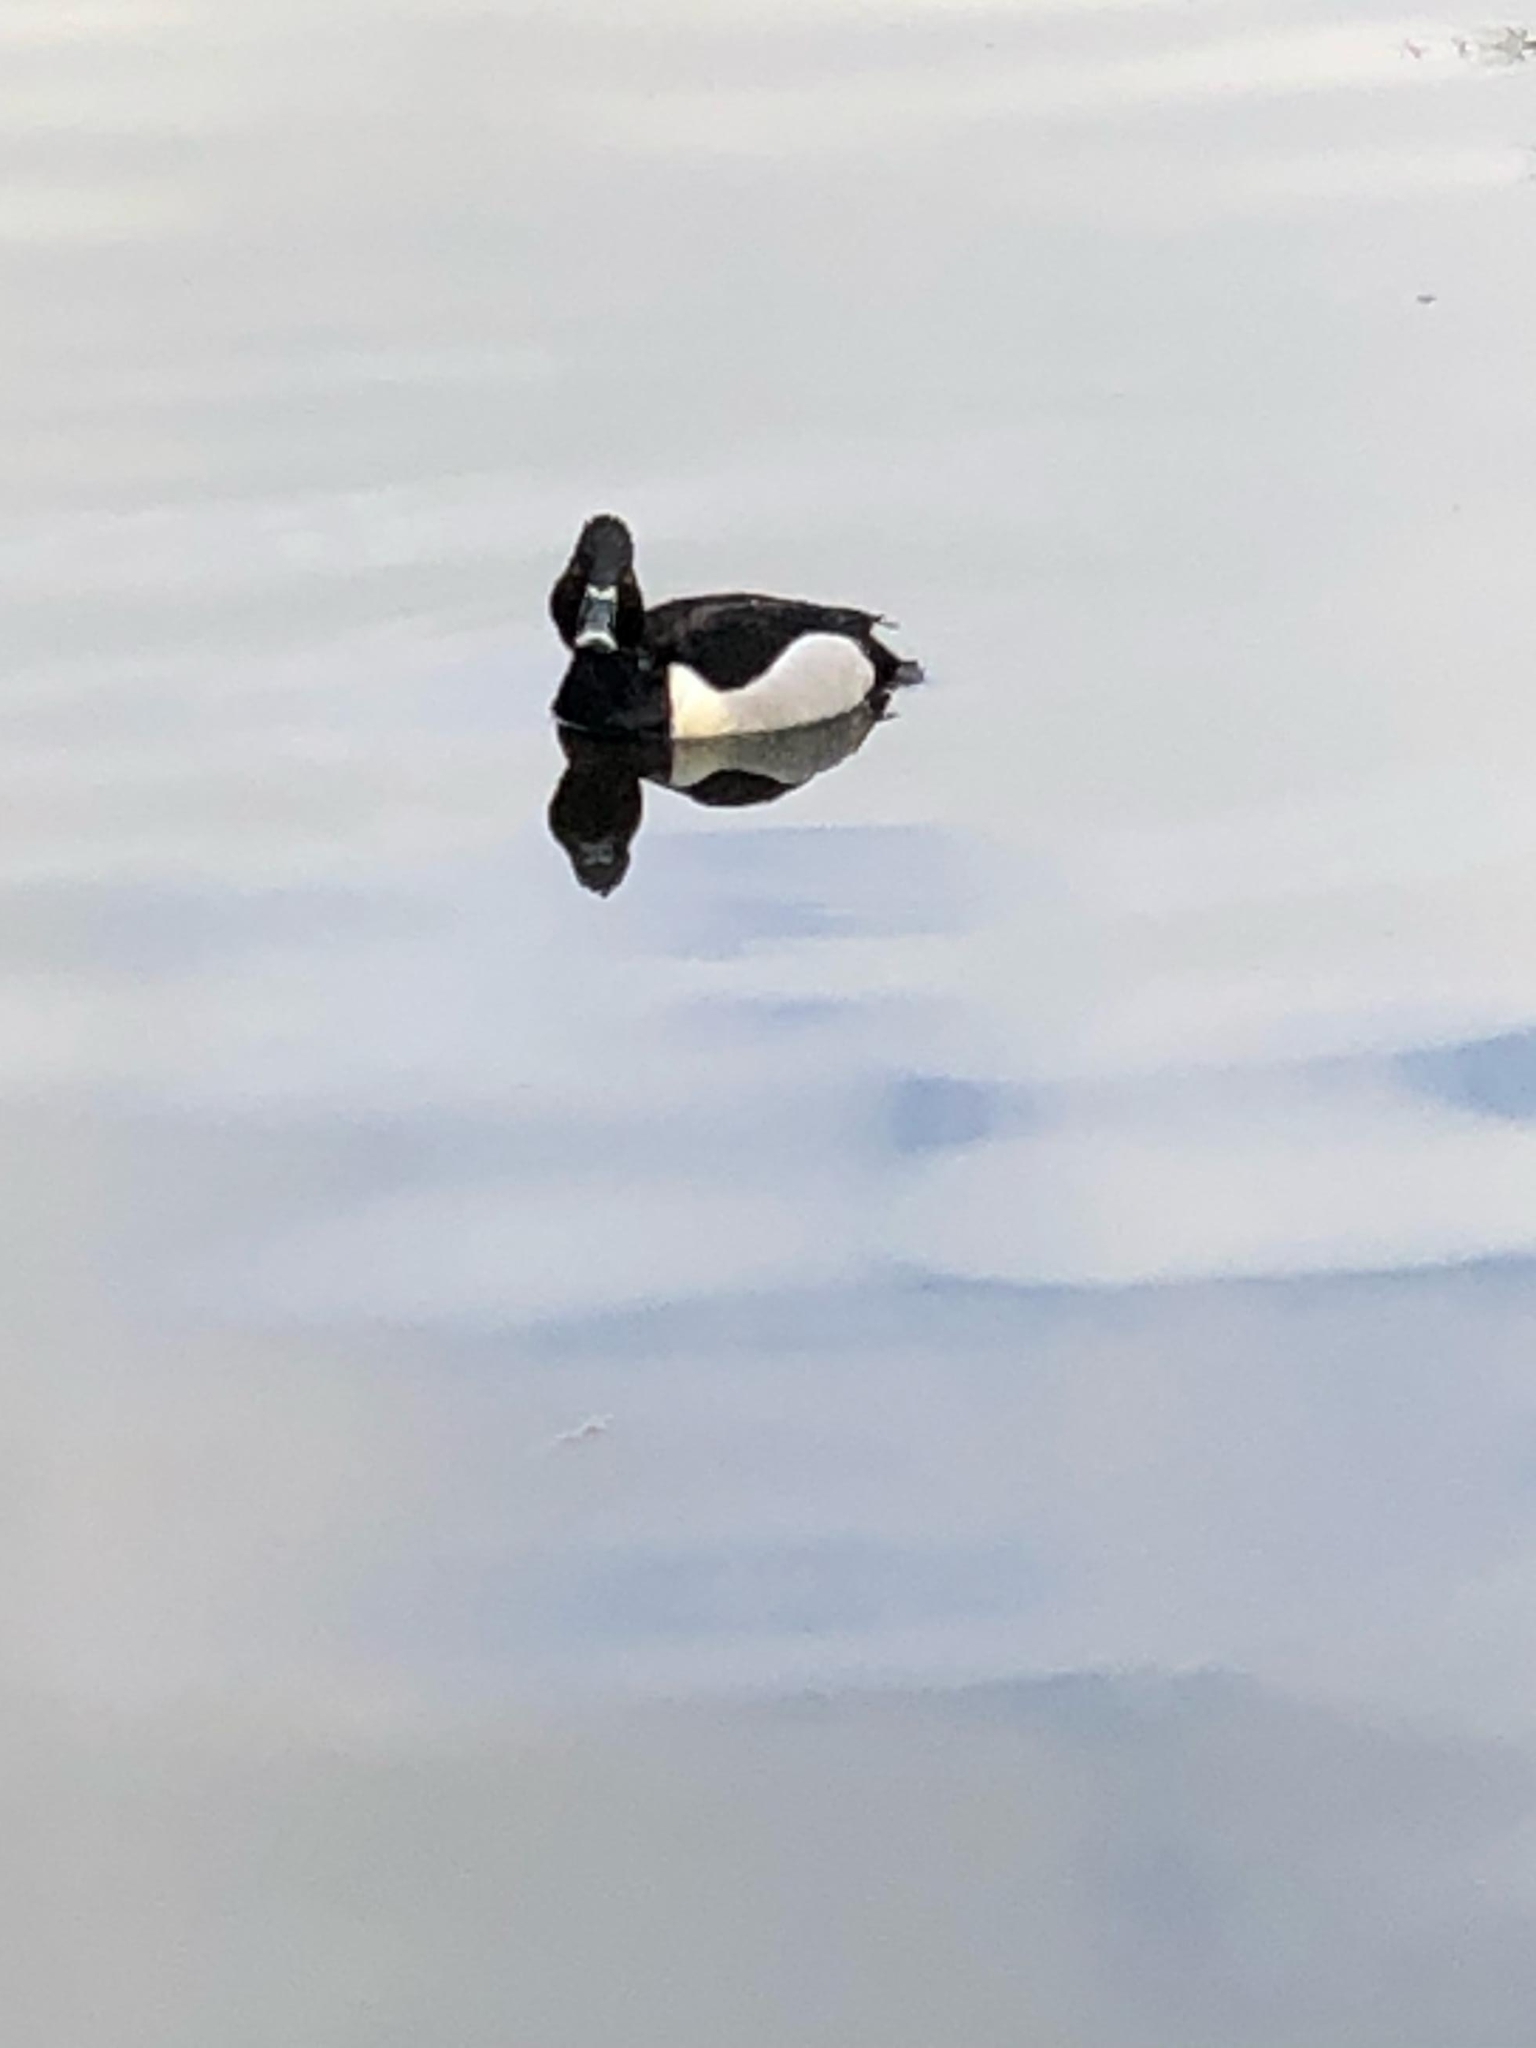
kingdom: Animalia
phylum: Chordata
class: Aves
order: Anseriformes
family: Anatidae
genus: Aythya
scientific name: Aythya collaris
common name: Ring-necked duck
